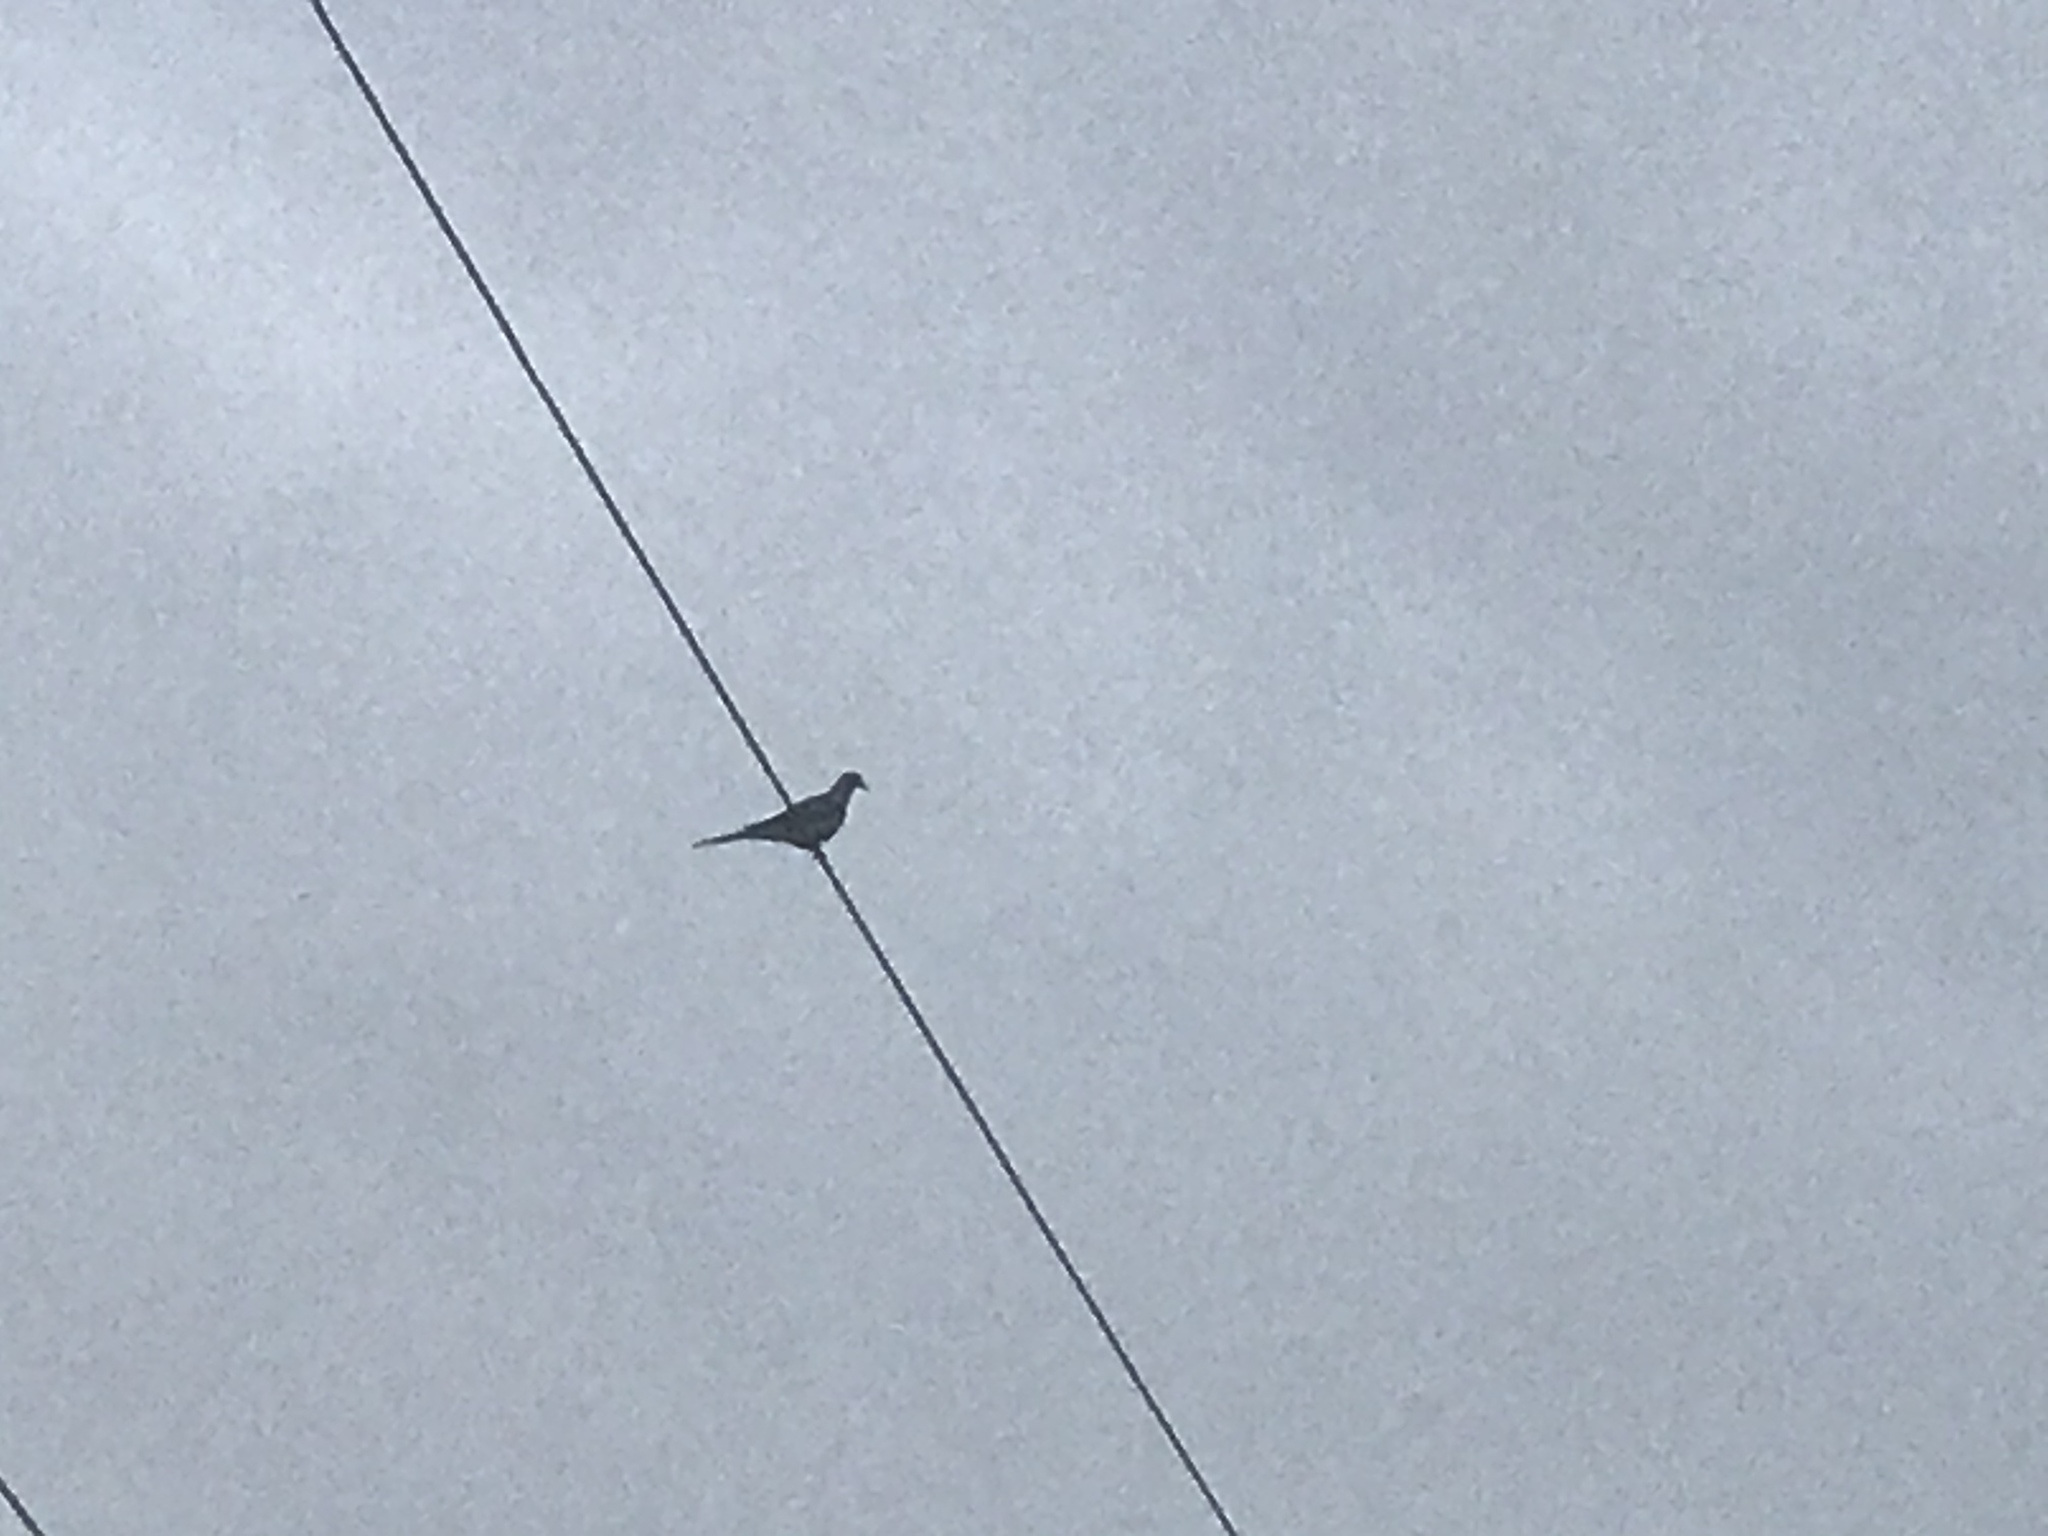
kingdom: Animalia
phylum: Chordata
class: Aves
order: Columbiformes
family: Columbidae
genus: Zenaida
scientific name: Zenaida macroura
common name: Mourning dove
